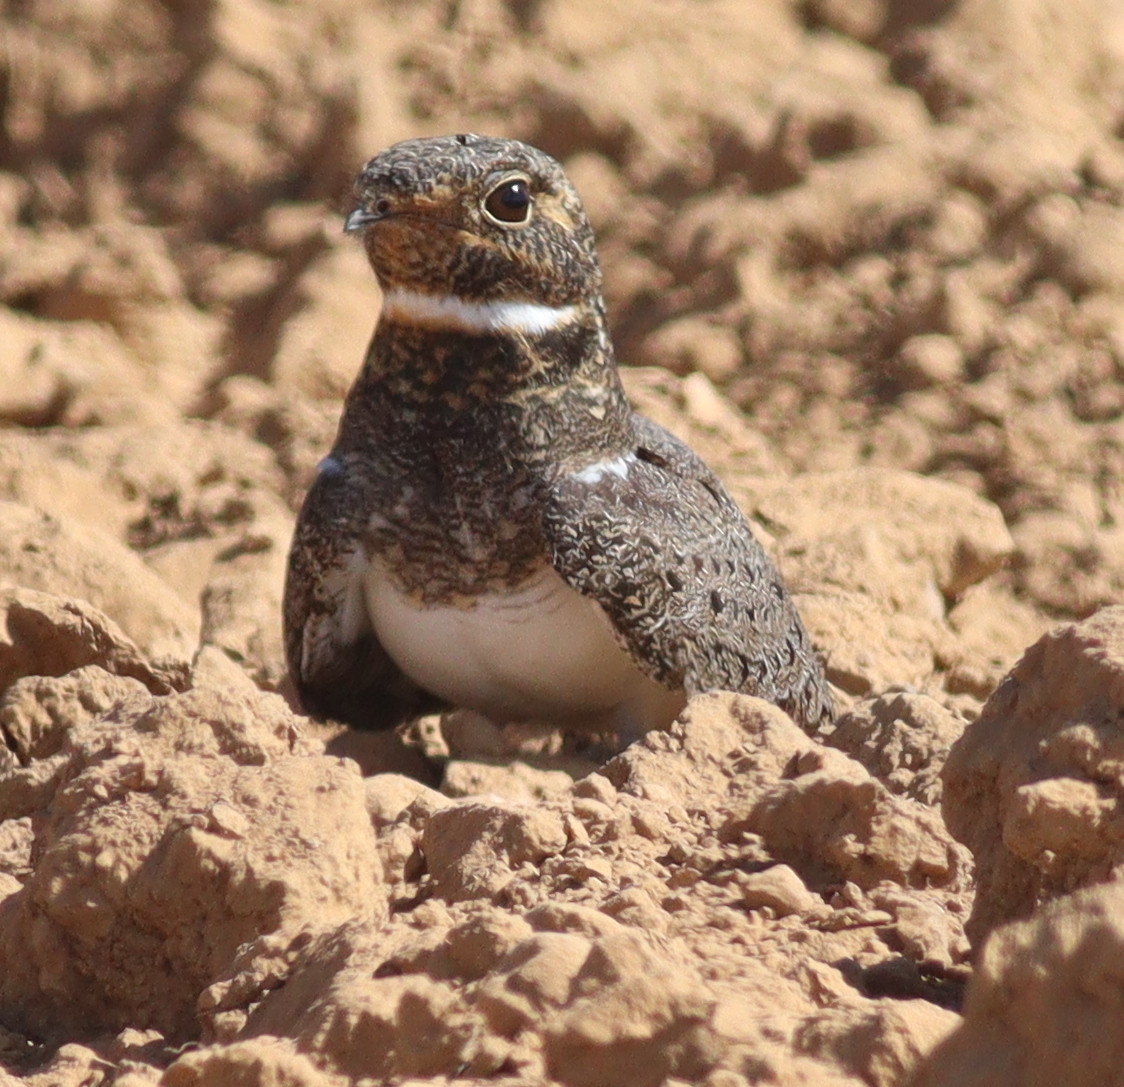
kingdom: Animalia
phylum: Chordata
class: Aves
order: Caprimulgiformes
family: Caprimulgidae
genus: Chordeiles
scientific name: Chordeiles nacunda
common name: Nacunda nighthawk
